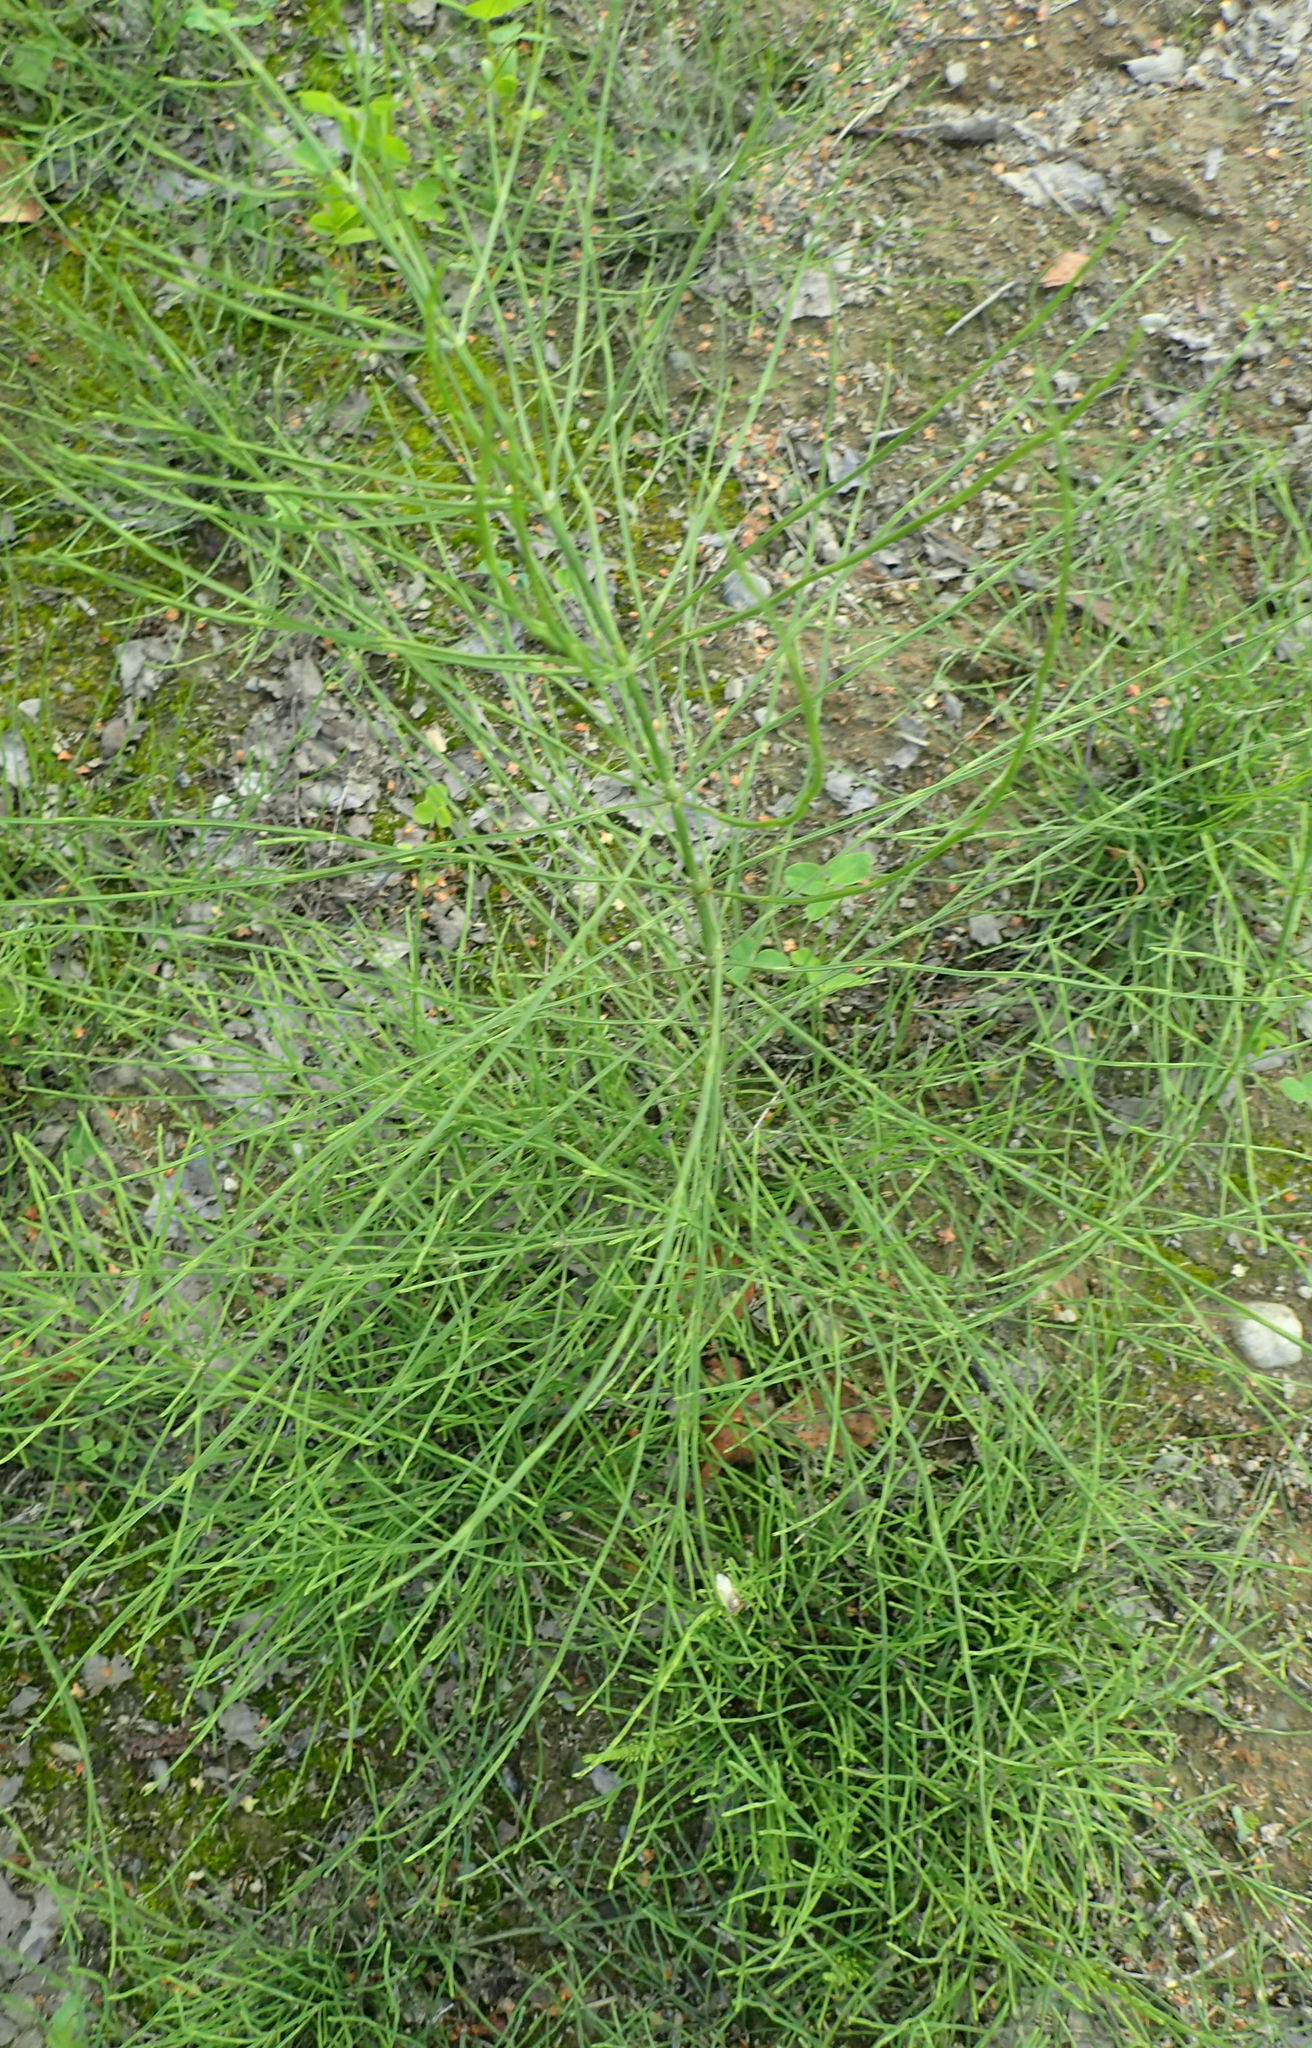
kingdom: Plantae
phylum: Tracheophyta
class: Polypodiopsida
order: Equisetales
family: Equisetaceae
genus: Equisetum
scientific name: Equisetum arvense
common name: Field horsetail
